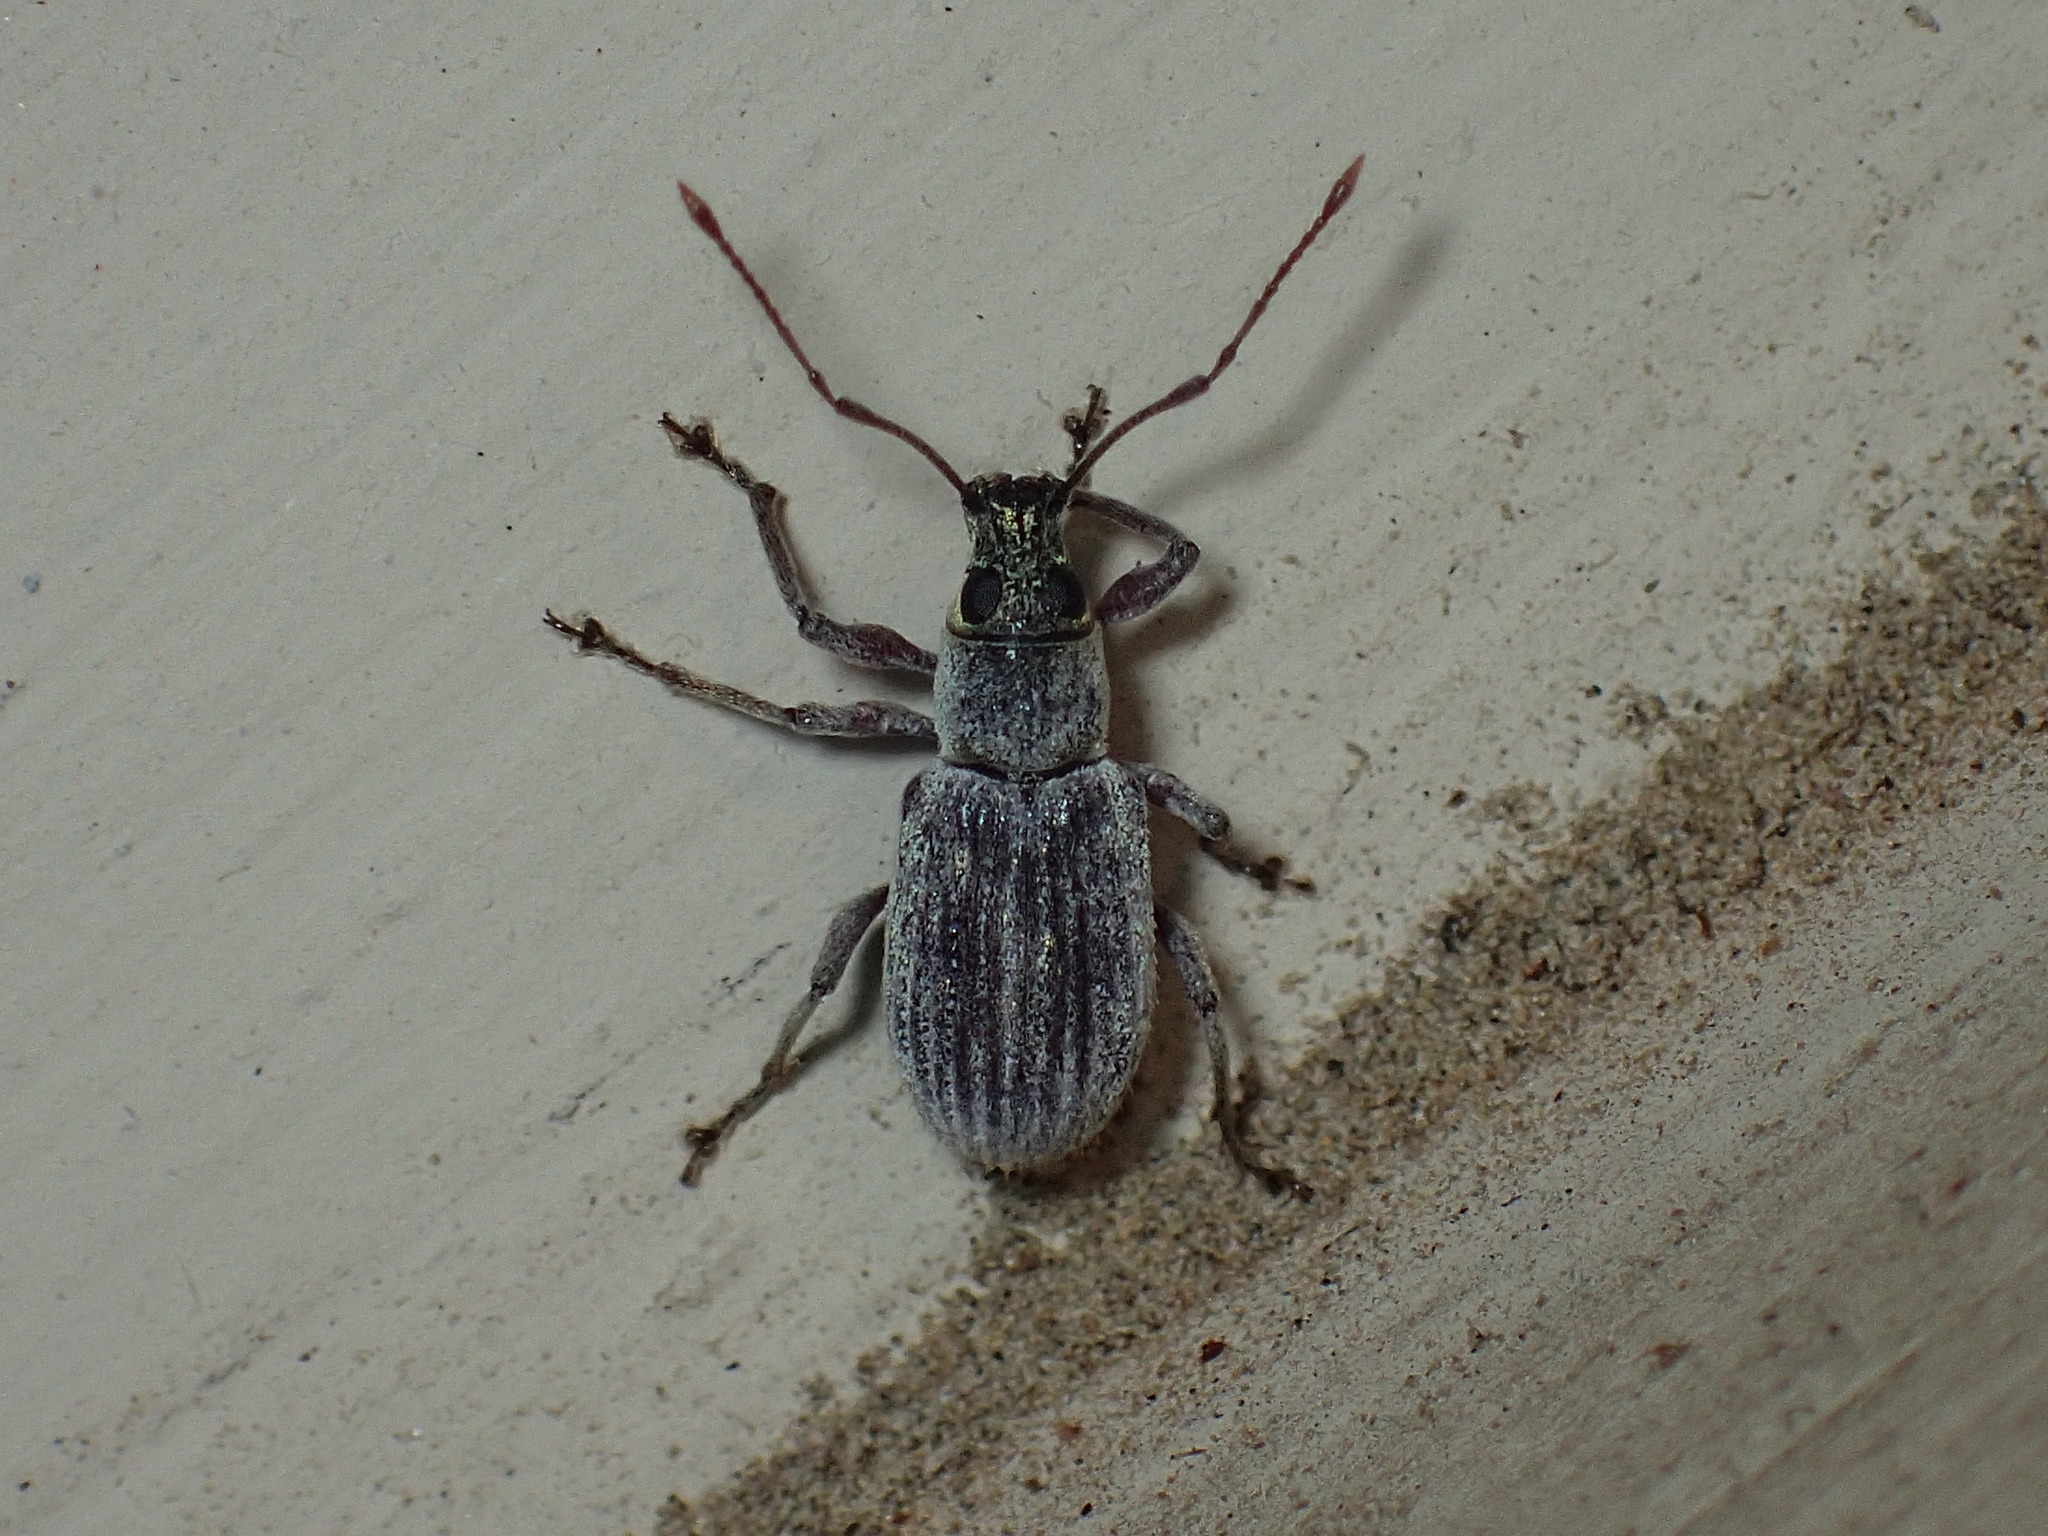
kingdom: Animalia
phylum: Arthropoda
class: Insecta
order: Coleoptera
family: Curculionidae
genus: Cyrtepistomus
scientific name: Cyrtepistomus castaneus
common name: Weevil
